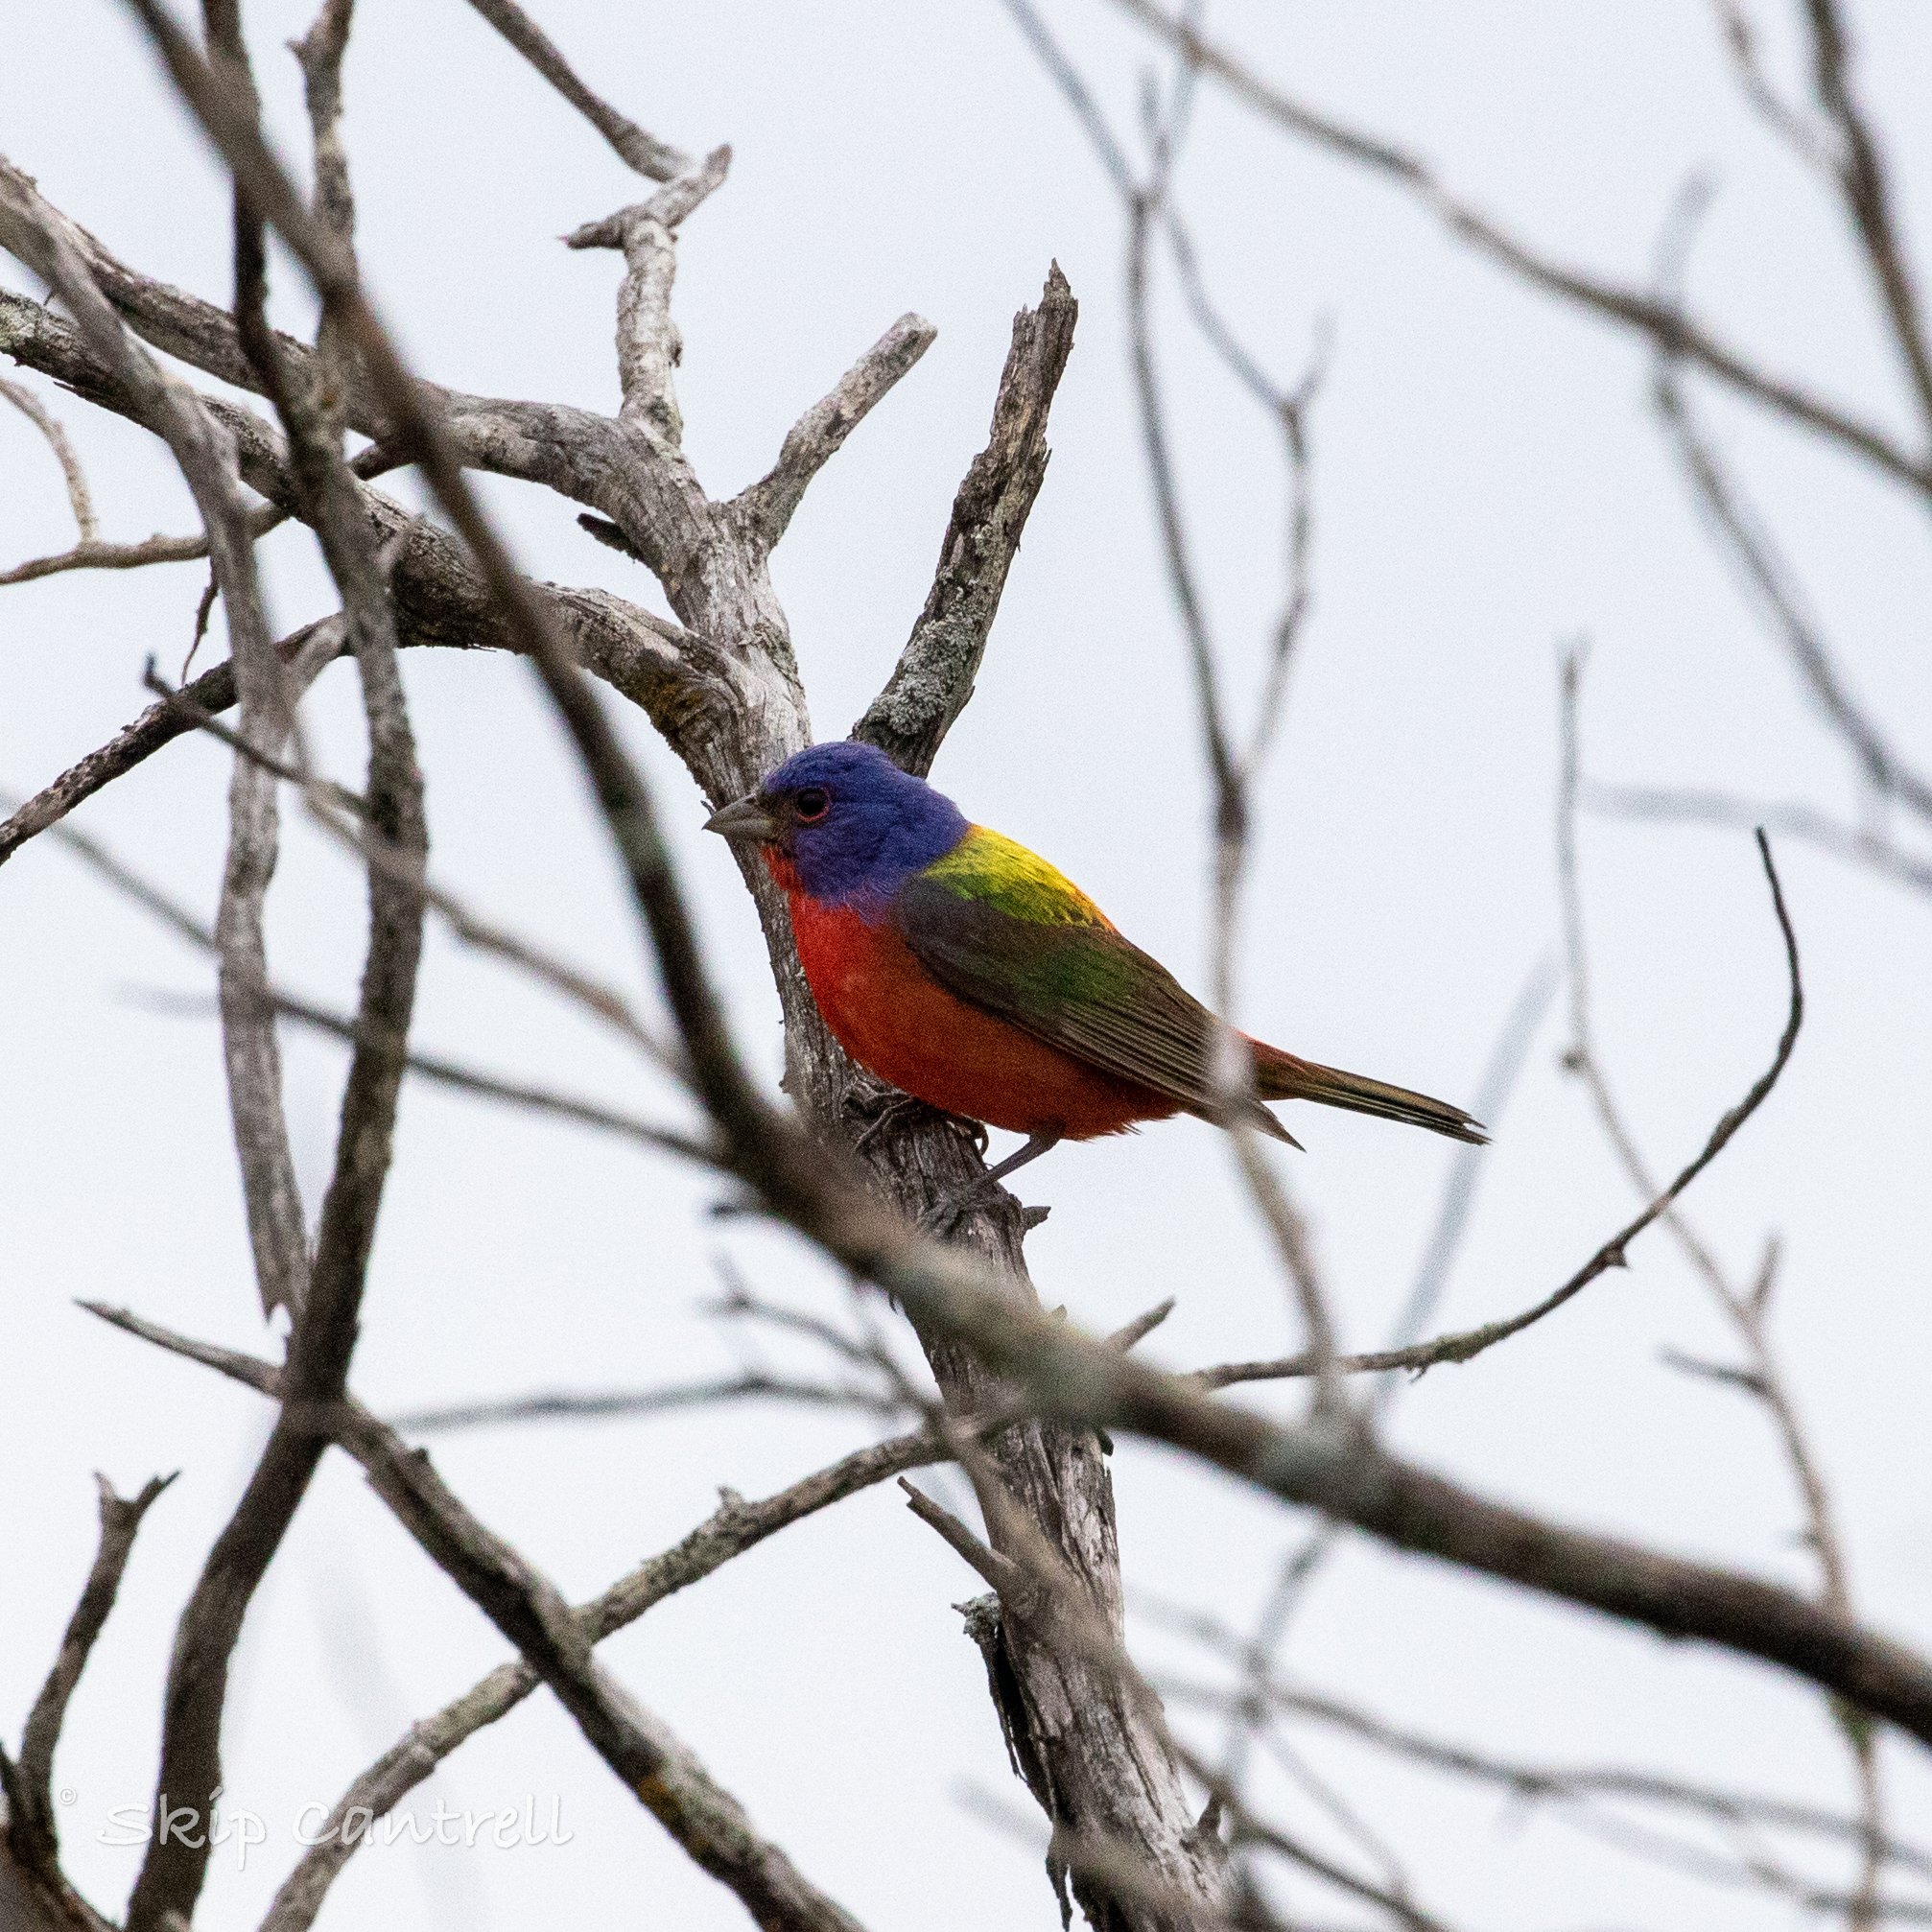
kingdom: Animalia
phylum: Chordata
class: Aves
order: Passeriformes
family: Cardinalidae
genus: Passerina
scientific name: Passerina ciris
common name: Painted bunting
